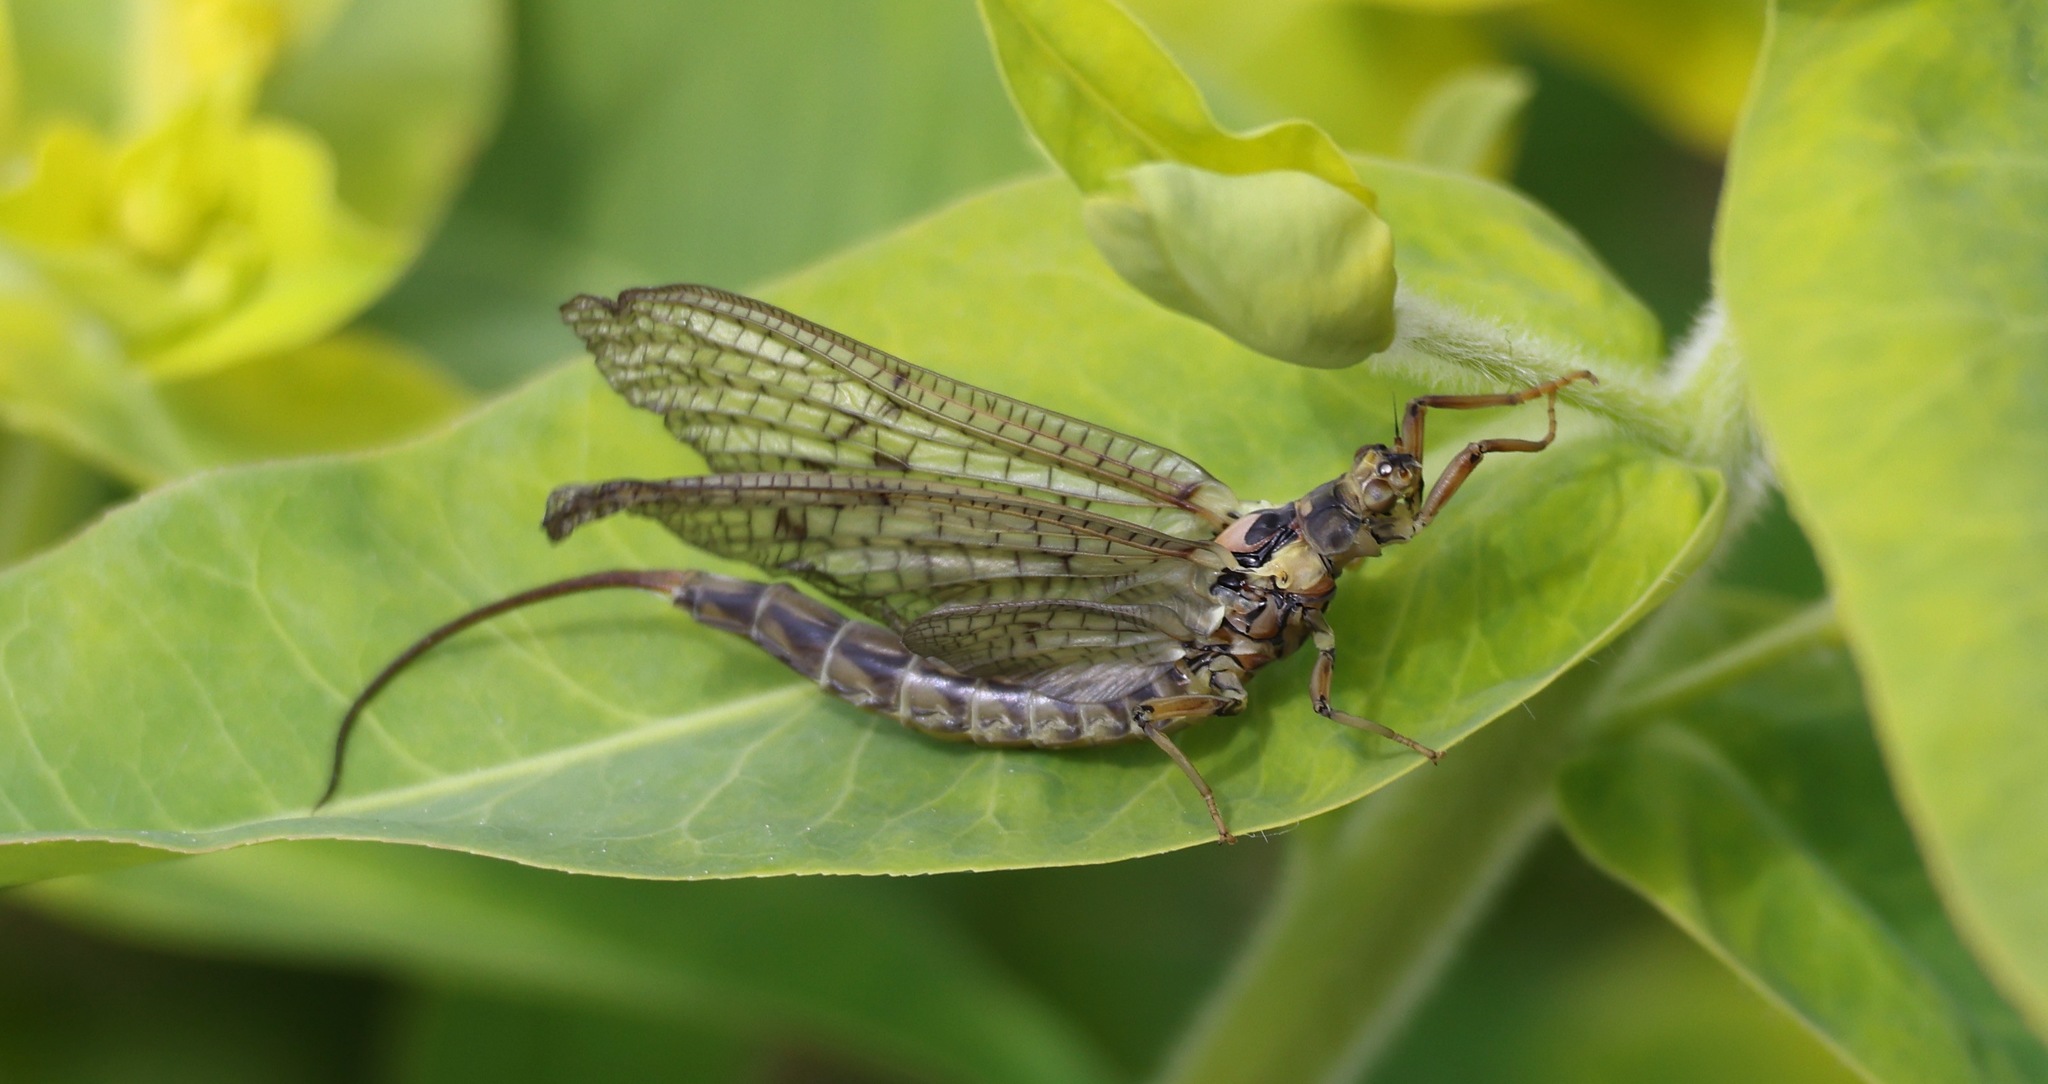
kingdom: Animalia
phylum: Arthropoda
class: Insecta
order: Ephemeroptera
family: Ephemeridae
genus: Ephemera
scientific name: Ephemera vulgata
